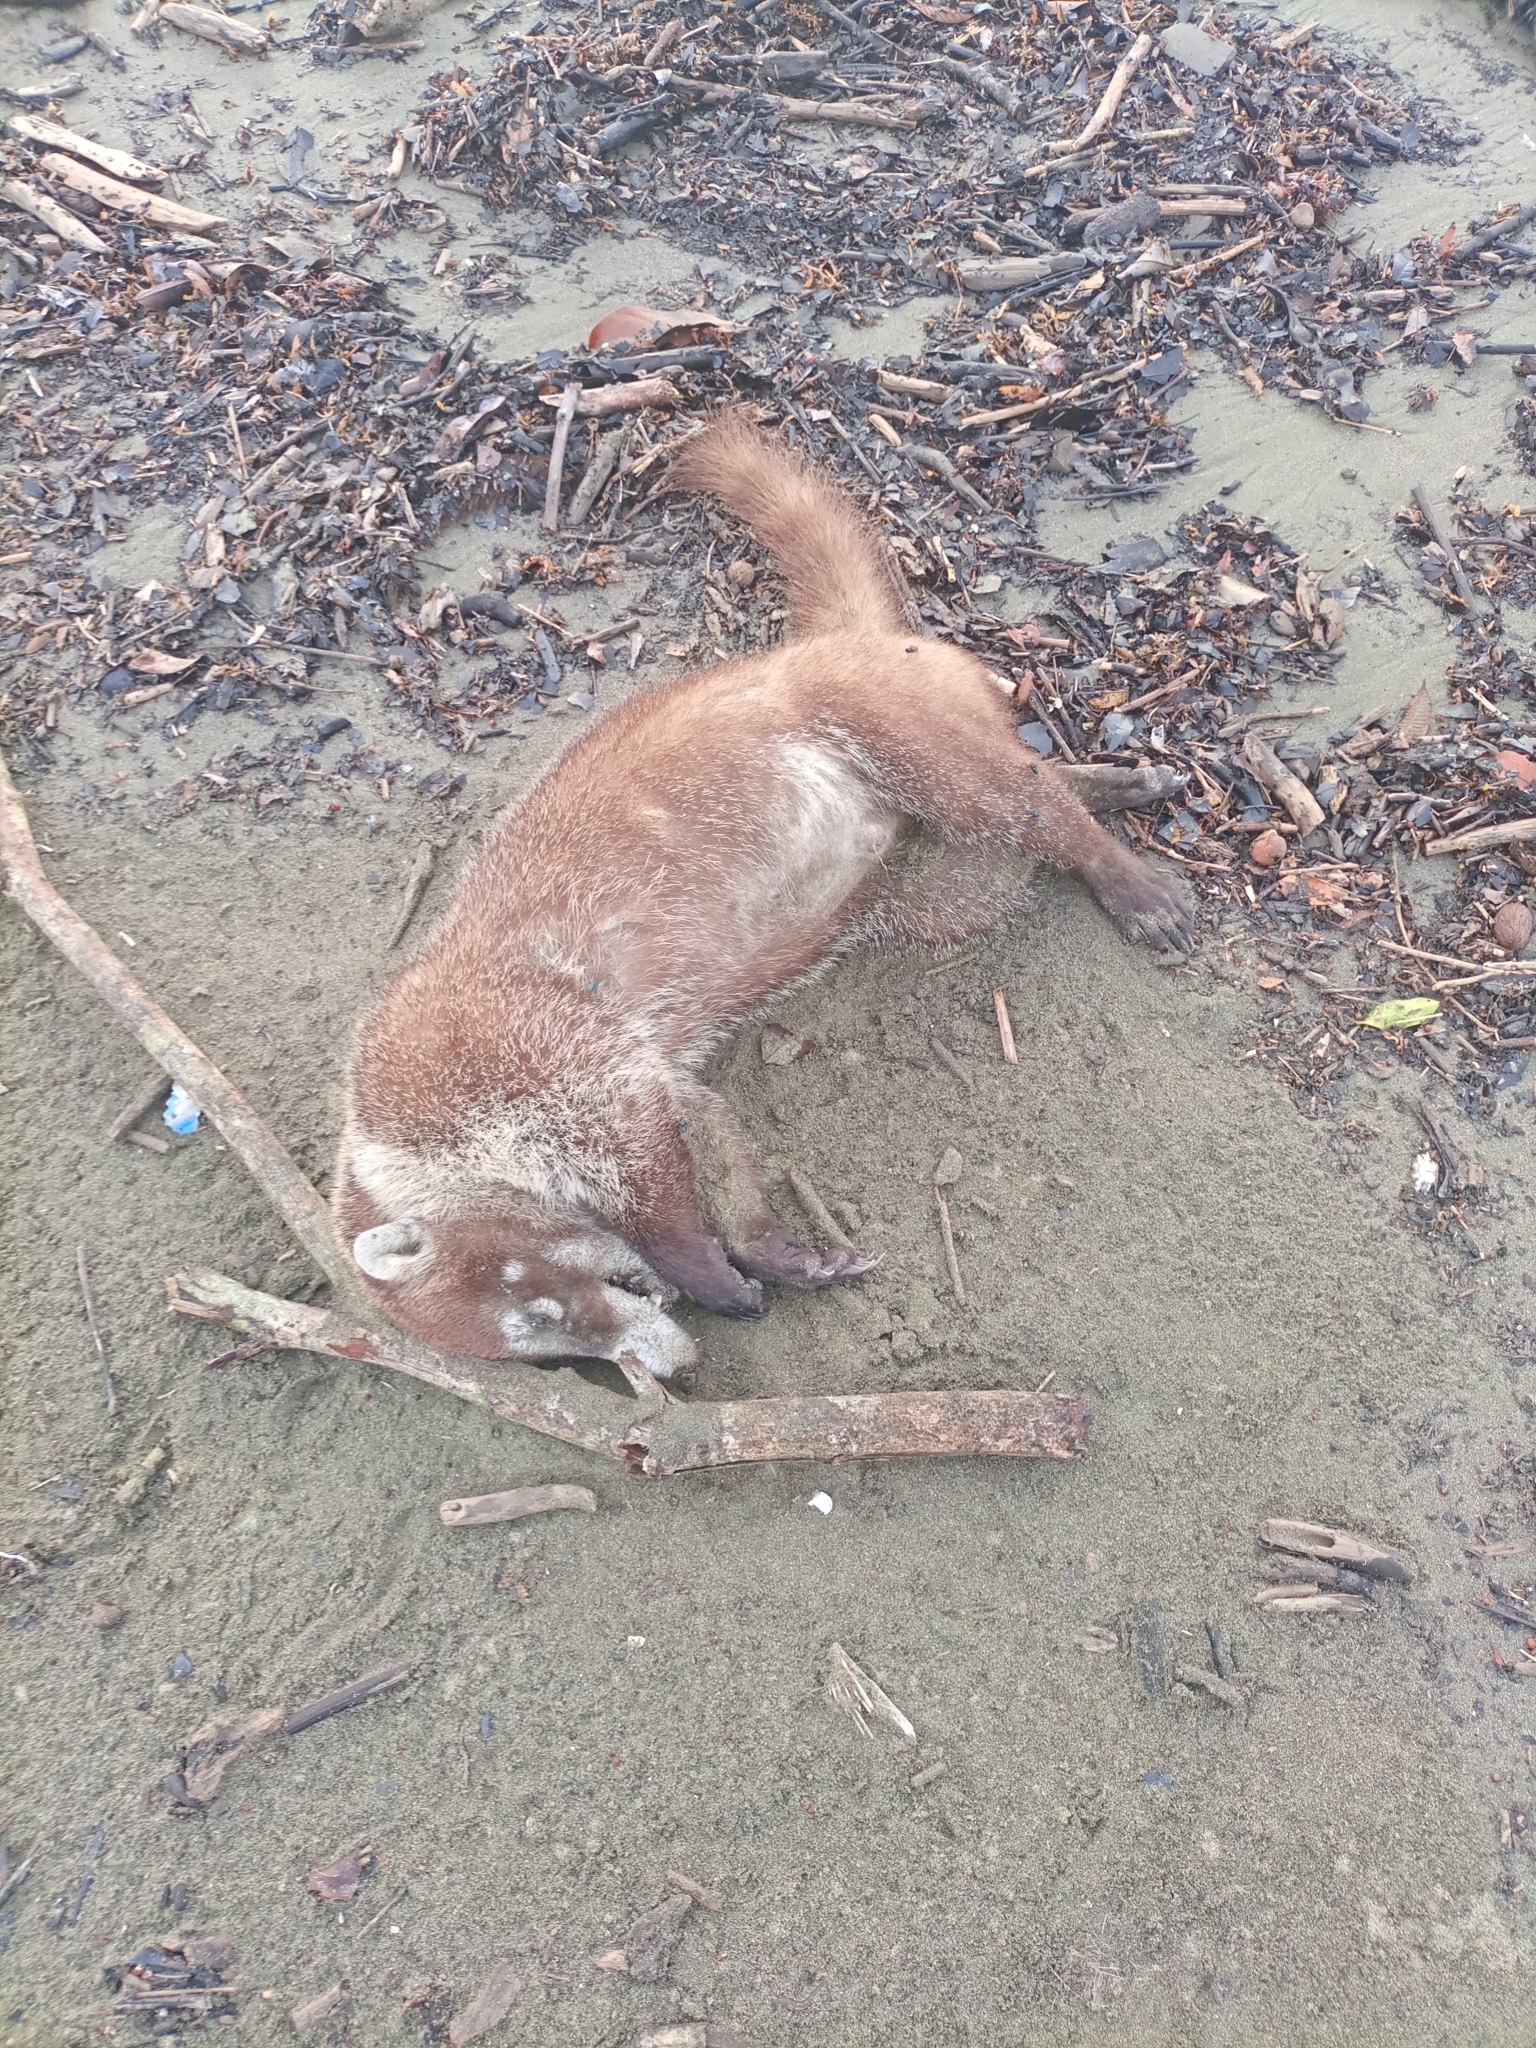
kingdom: Animalia
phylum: Chordata
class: Mammalia
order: Carnivora
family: Procyonidae
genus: Nasua
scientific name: Nasua narica
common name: White-nosed coati
